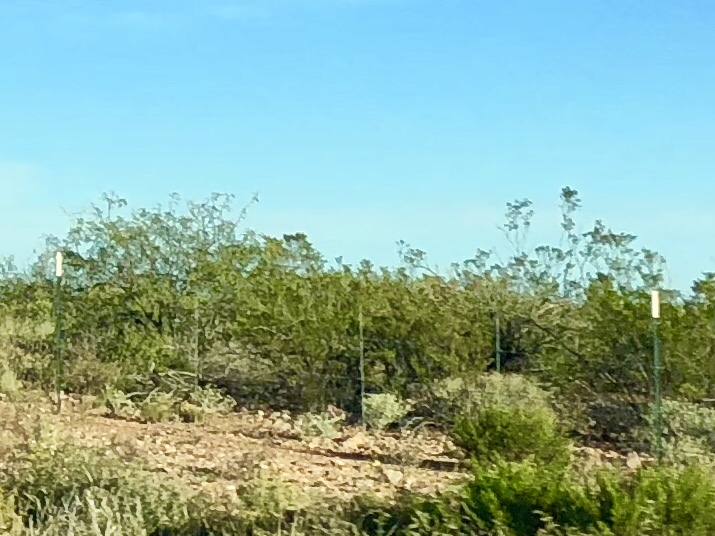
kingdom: Plantae
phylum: Tracheophyta
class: Magnoliopsida
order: Zygophyllales
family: Zygophyllaceae
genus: Larrea
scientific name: Larrea tridentata
